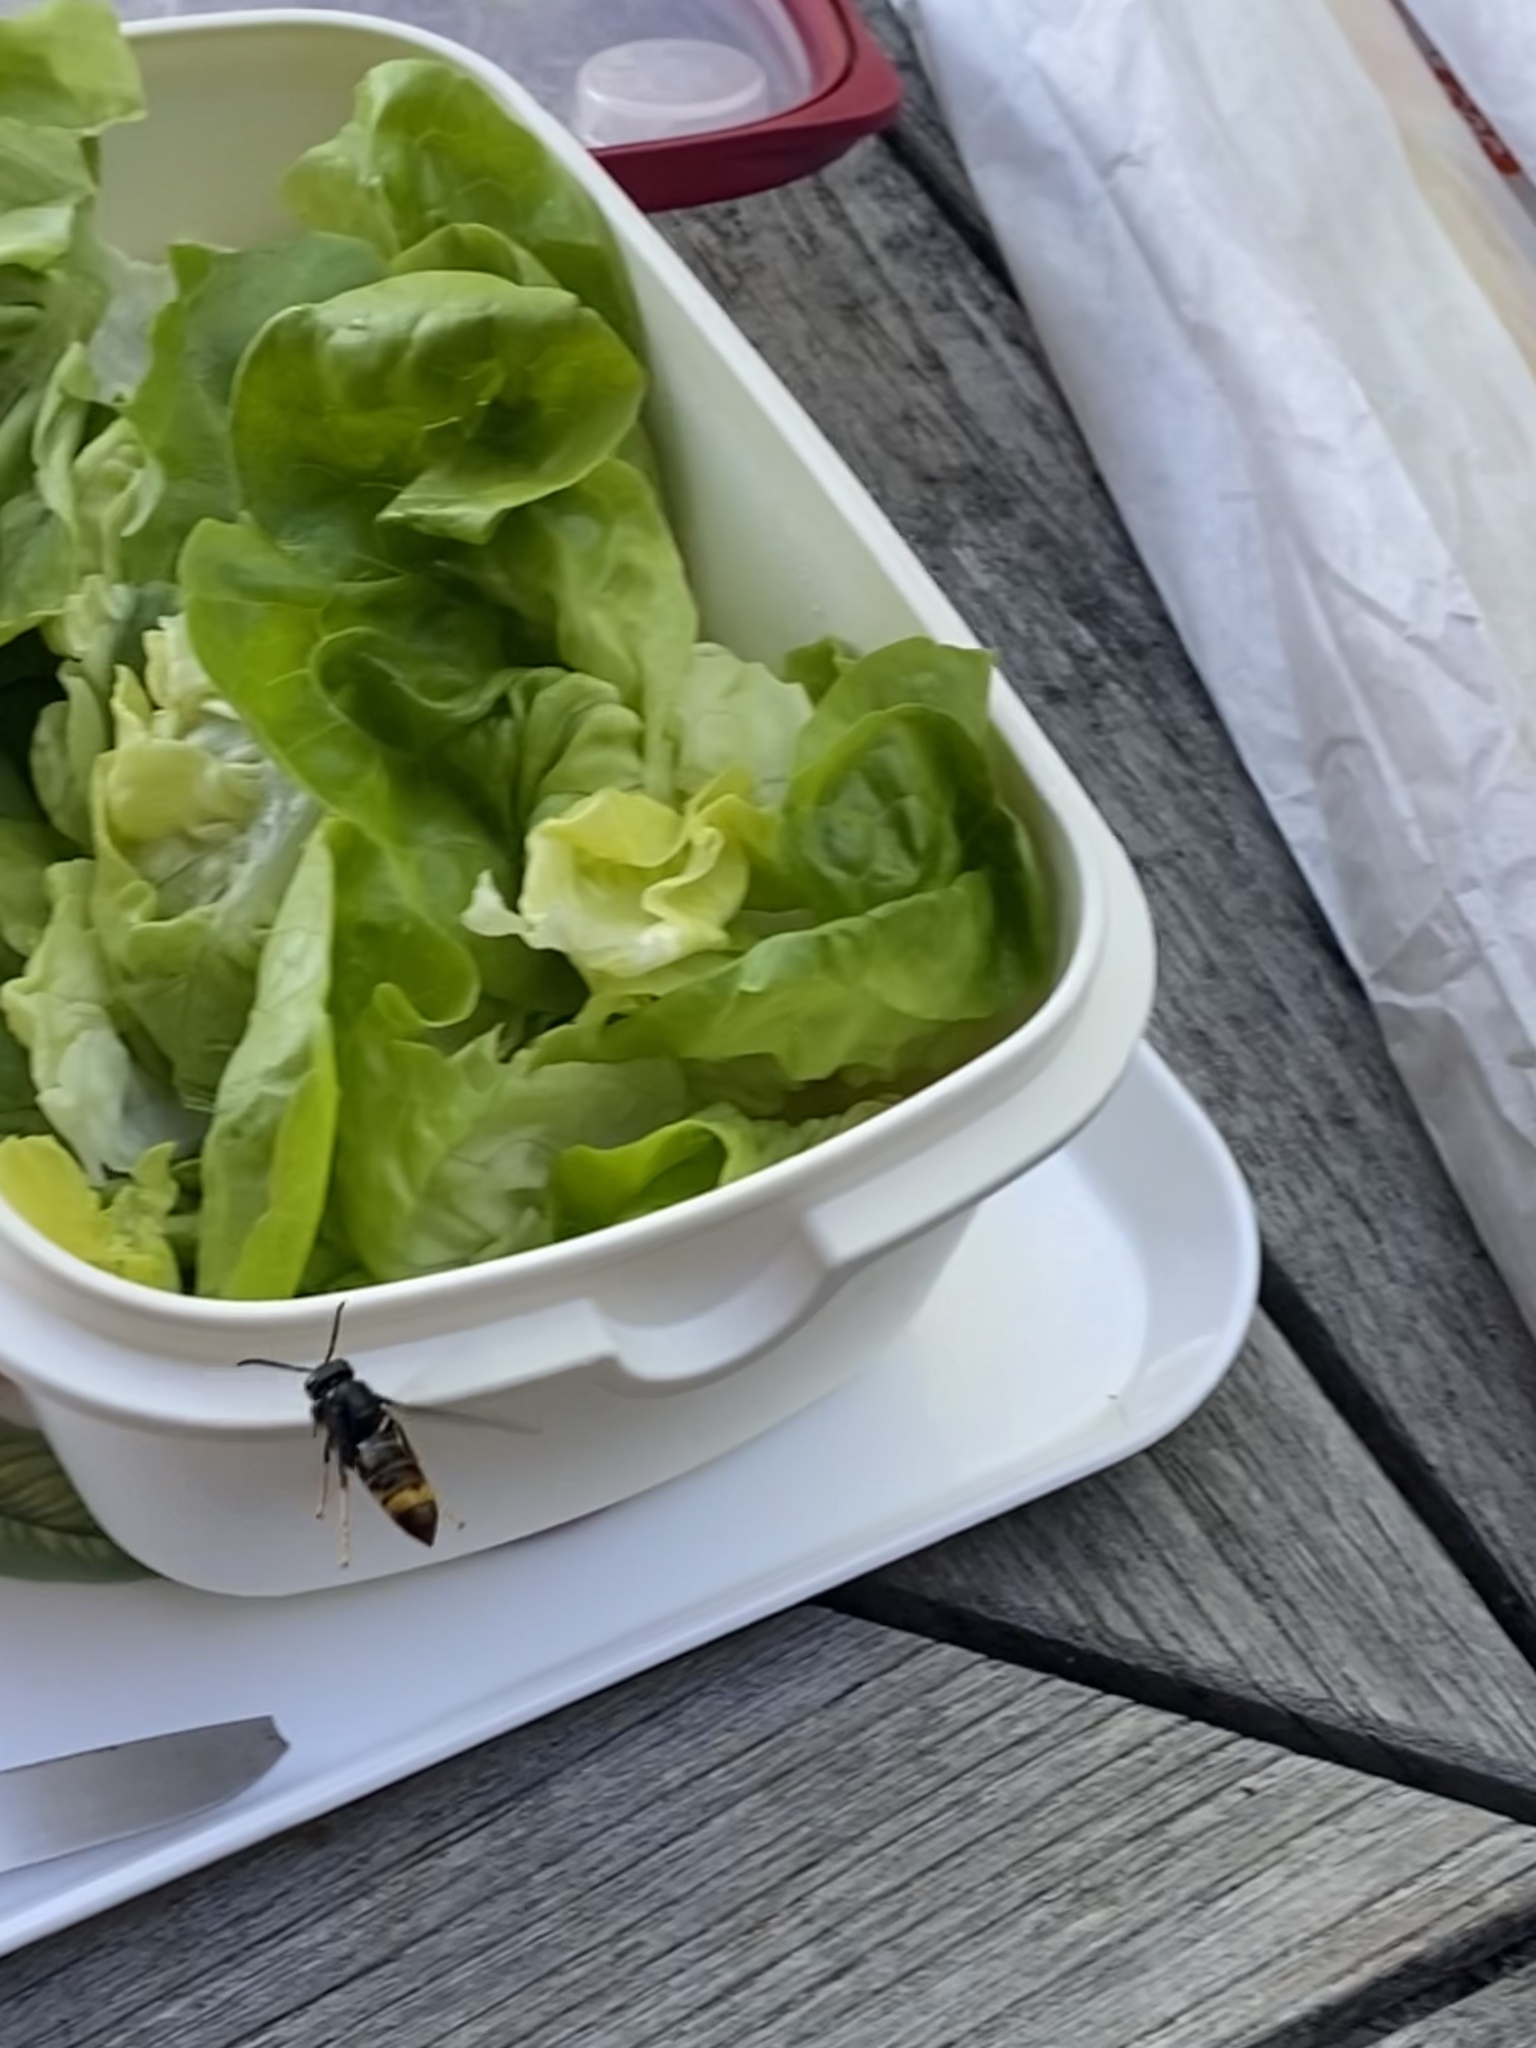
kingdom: Animalia
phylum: Arthropoda
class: Insecta
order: Hymenoptera
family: Vespidae
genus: Vespa
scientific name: Vespa velutina
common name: Asian hornet
